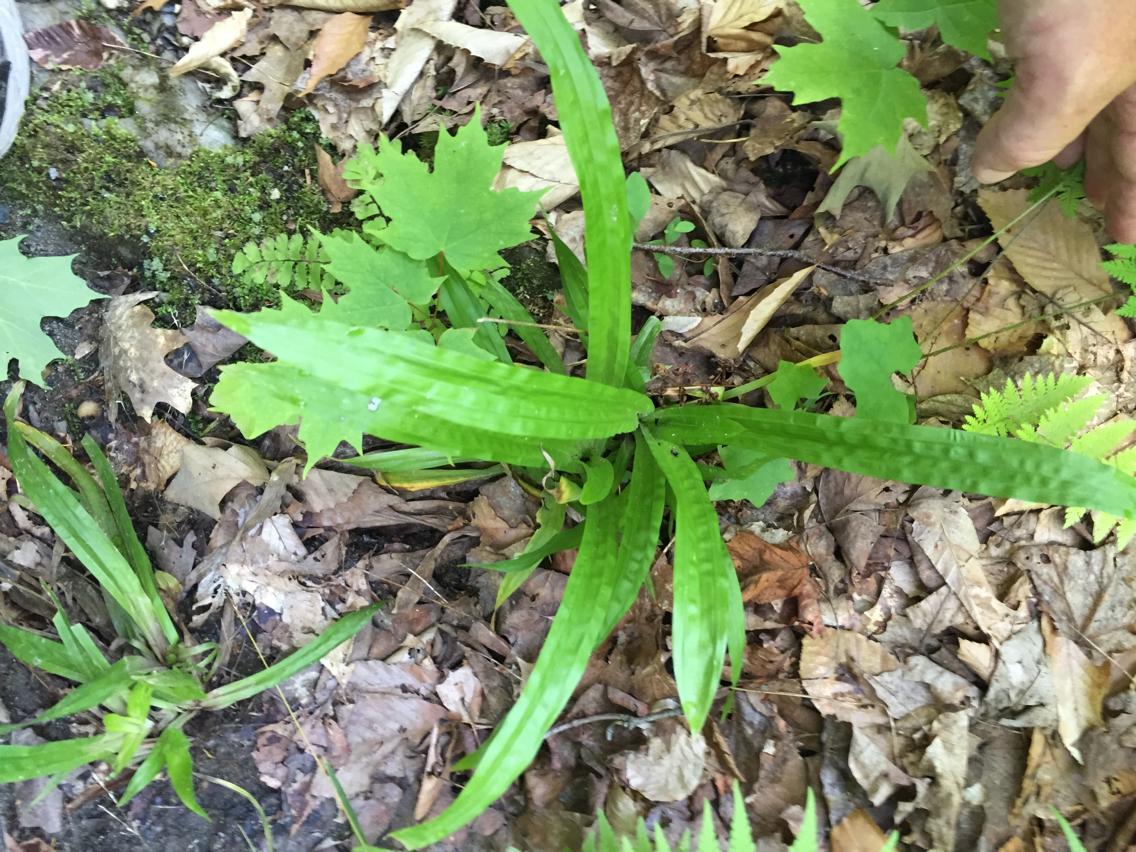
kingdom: Plantae
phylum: Tracheophyta
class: Liliopsida
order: Poales
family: Cyperaceae
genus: Carex
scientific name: Carex plantaginea
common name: Plantain-leaved sedge
